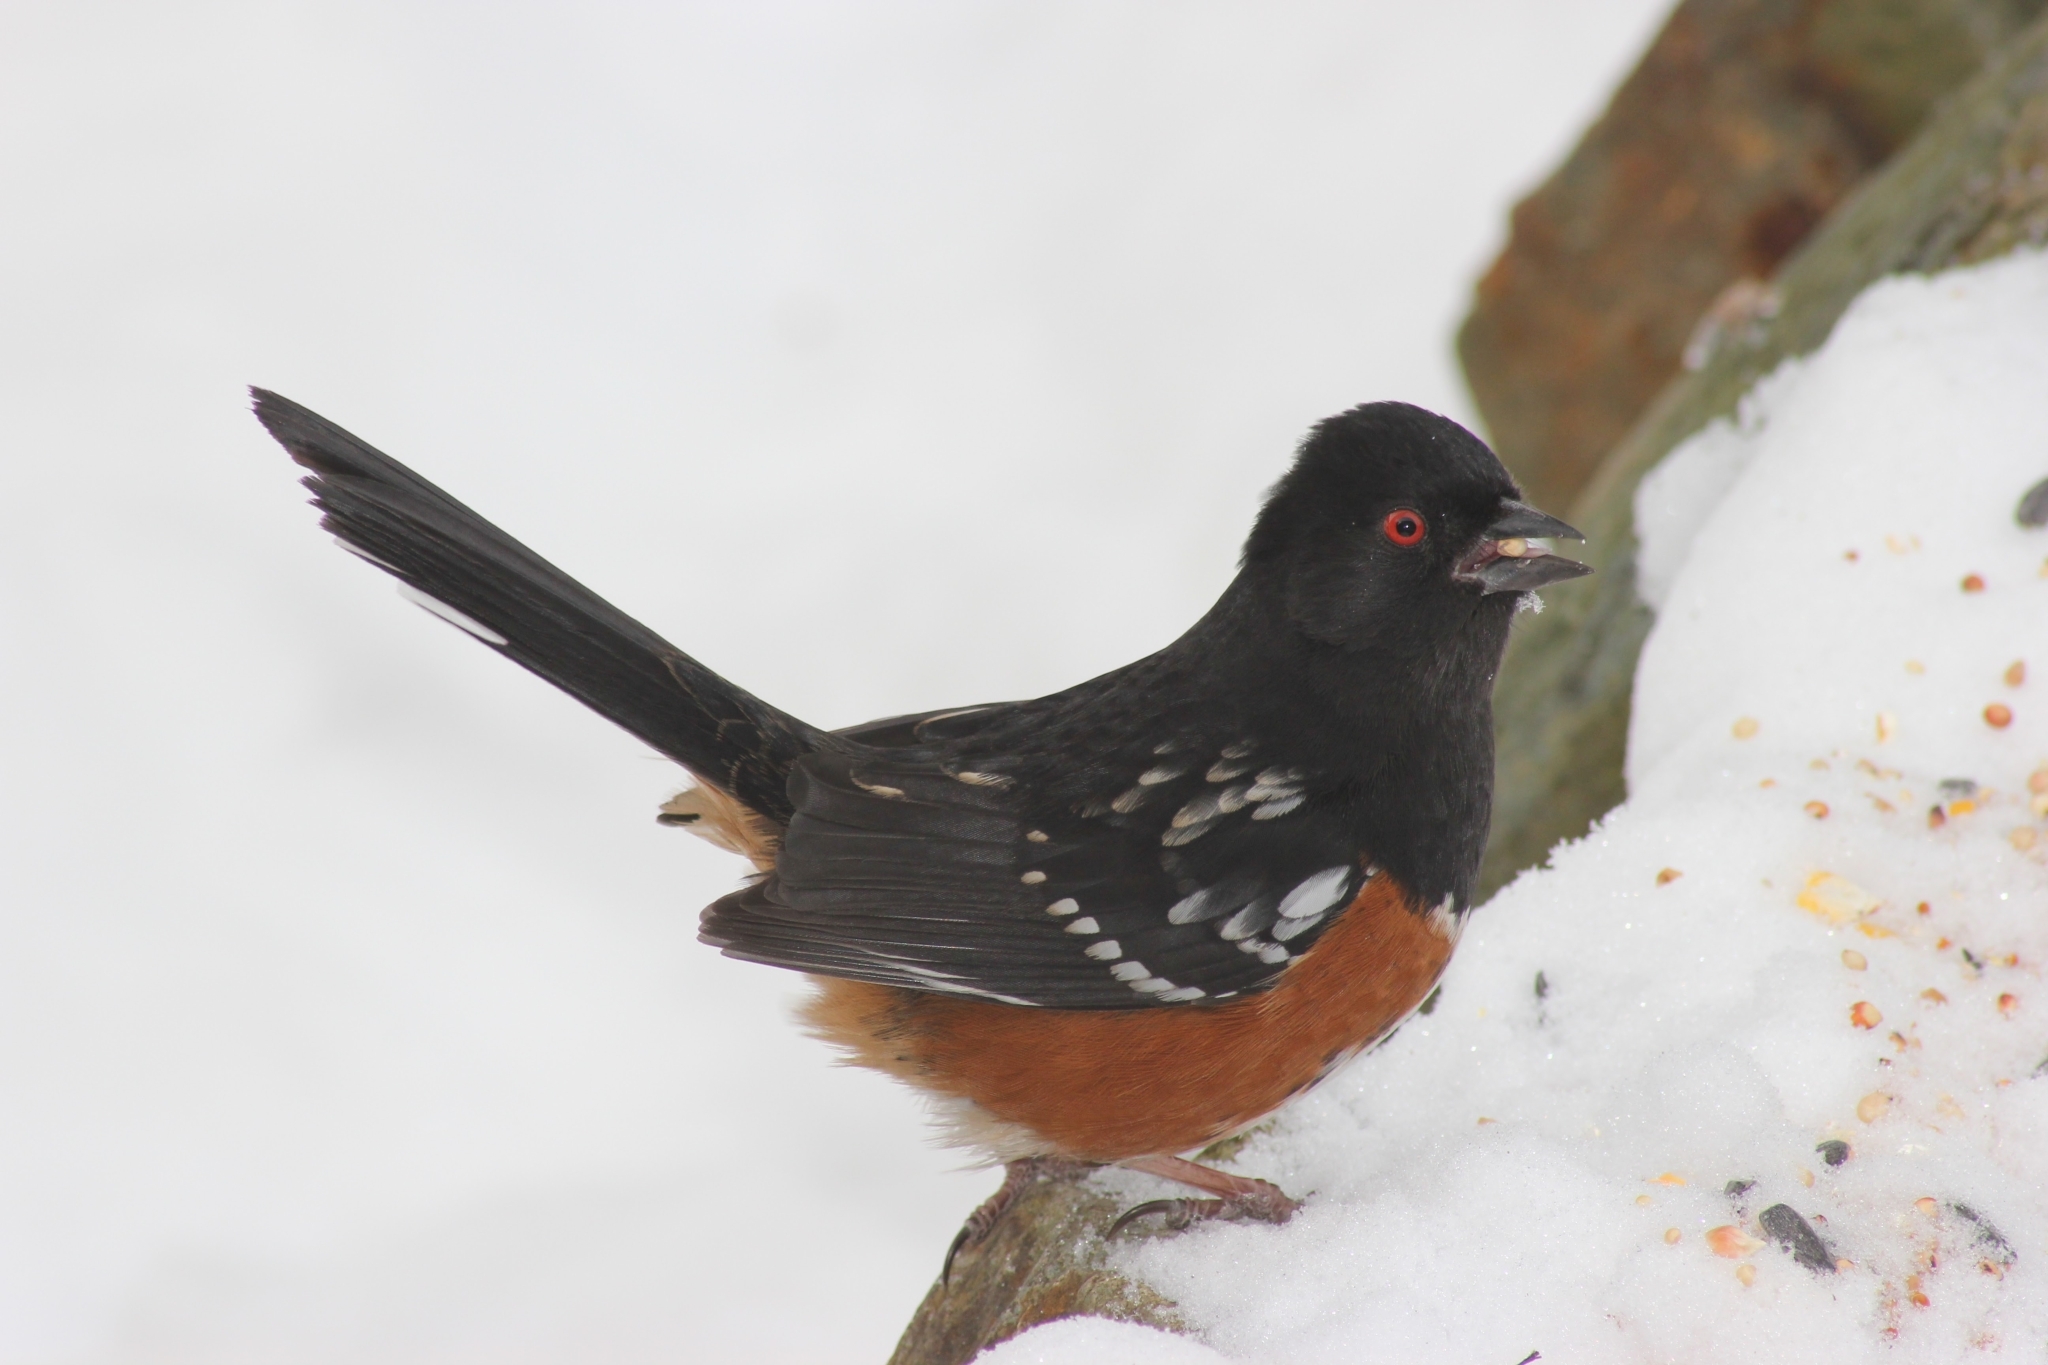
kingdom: Animalia
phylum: Chordata
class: Aves
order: Passeriformes
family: Passerellidae
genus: Pipilo
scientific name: Pipilo maculatus
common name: Spotted towhee
